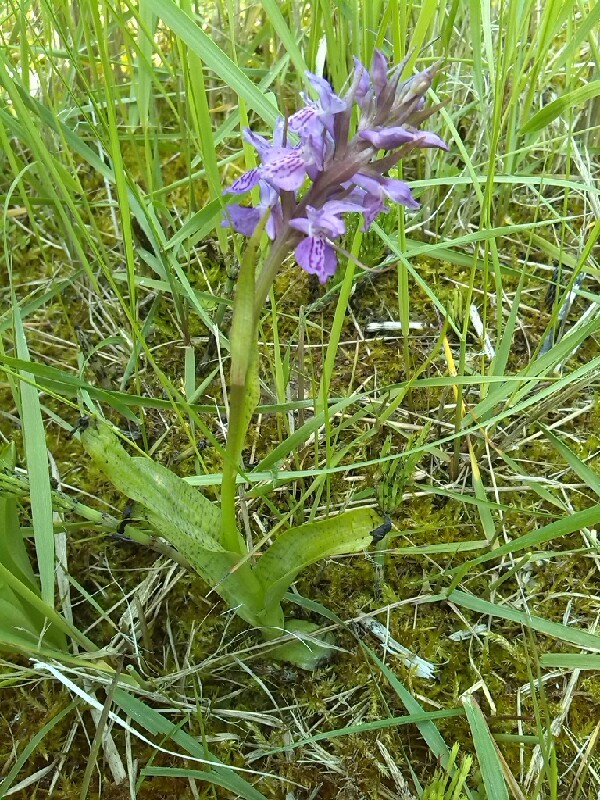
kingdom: Plantae
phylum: Tracheophyta
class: Liliopsida
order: Asparagales
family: Orchidaceae
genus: Dactylorhiza
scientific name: Dactylorhiza majalis
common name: Marsh orchid
